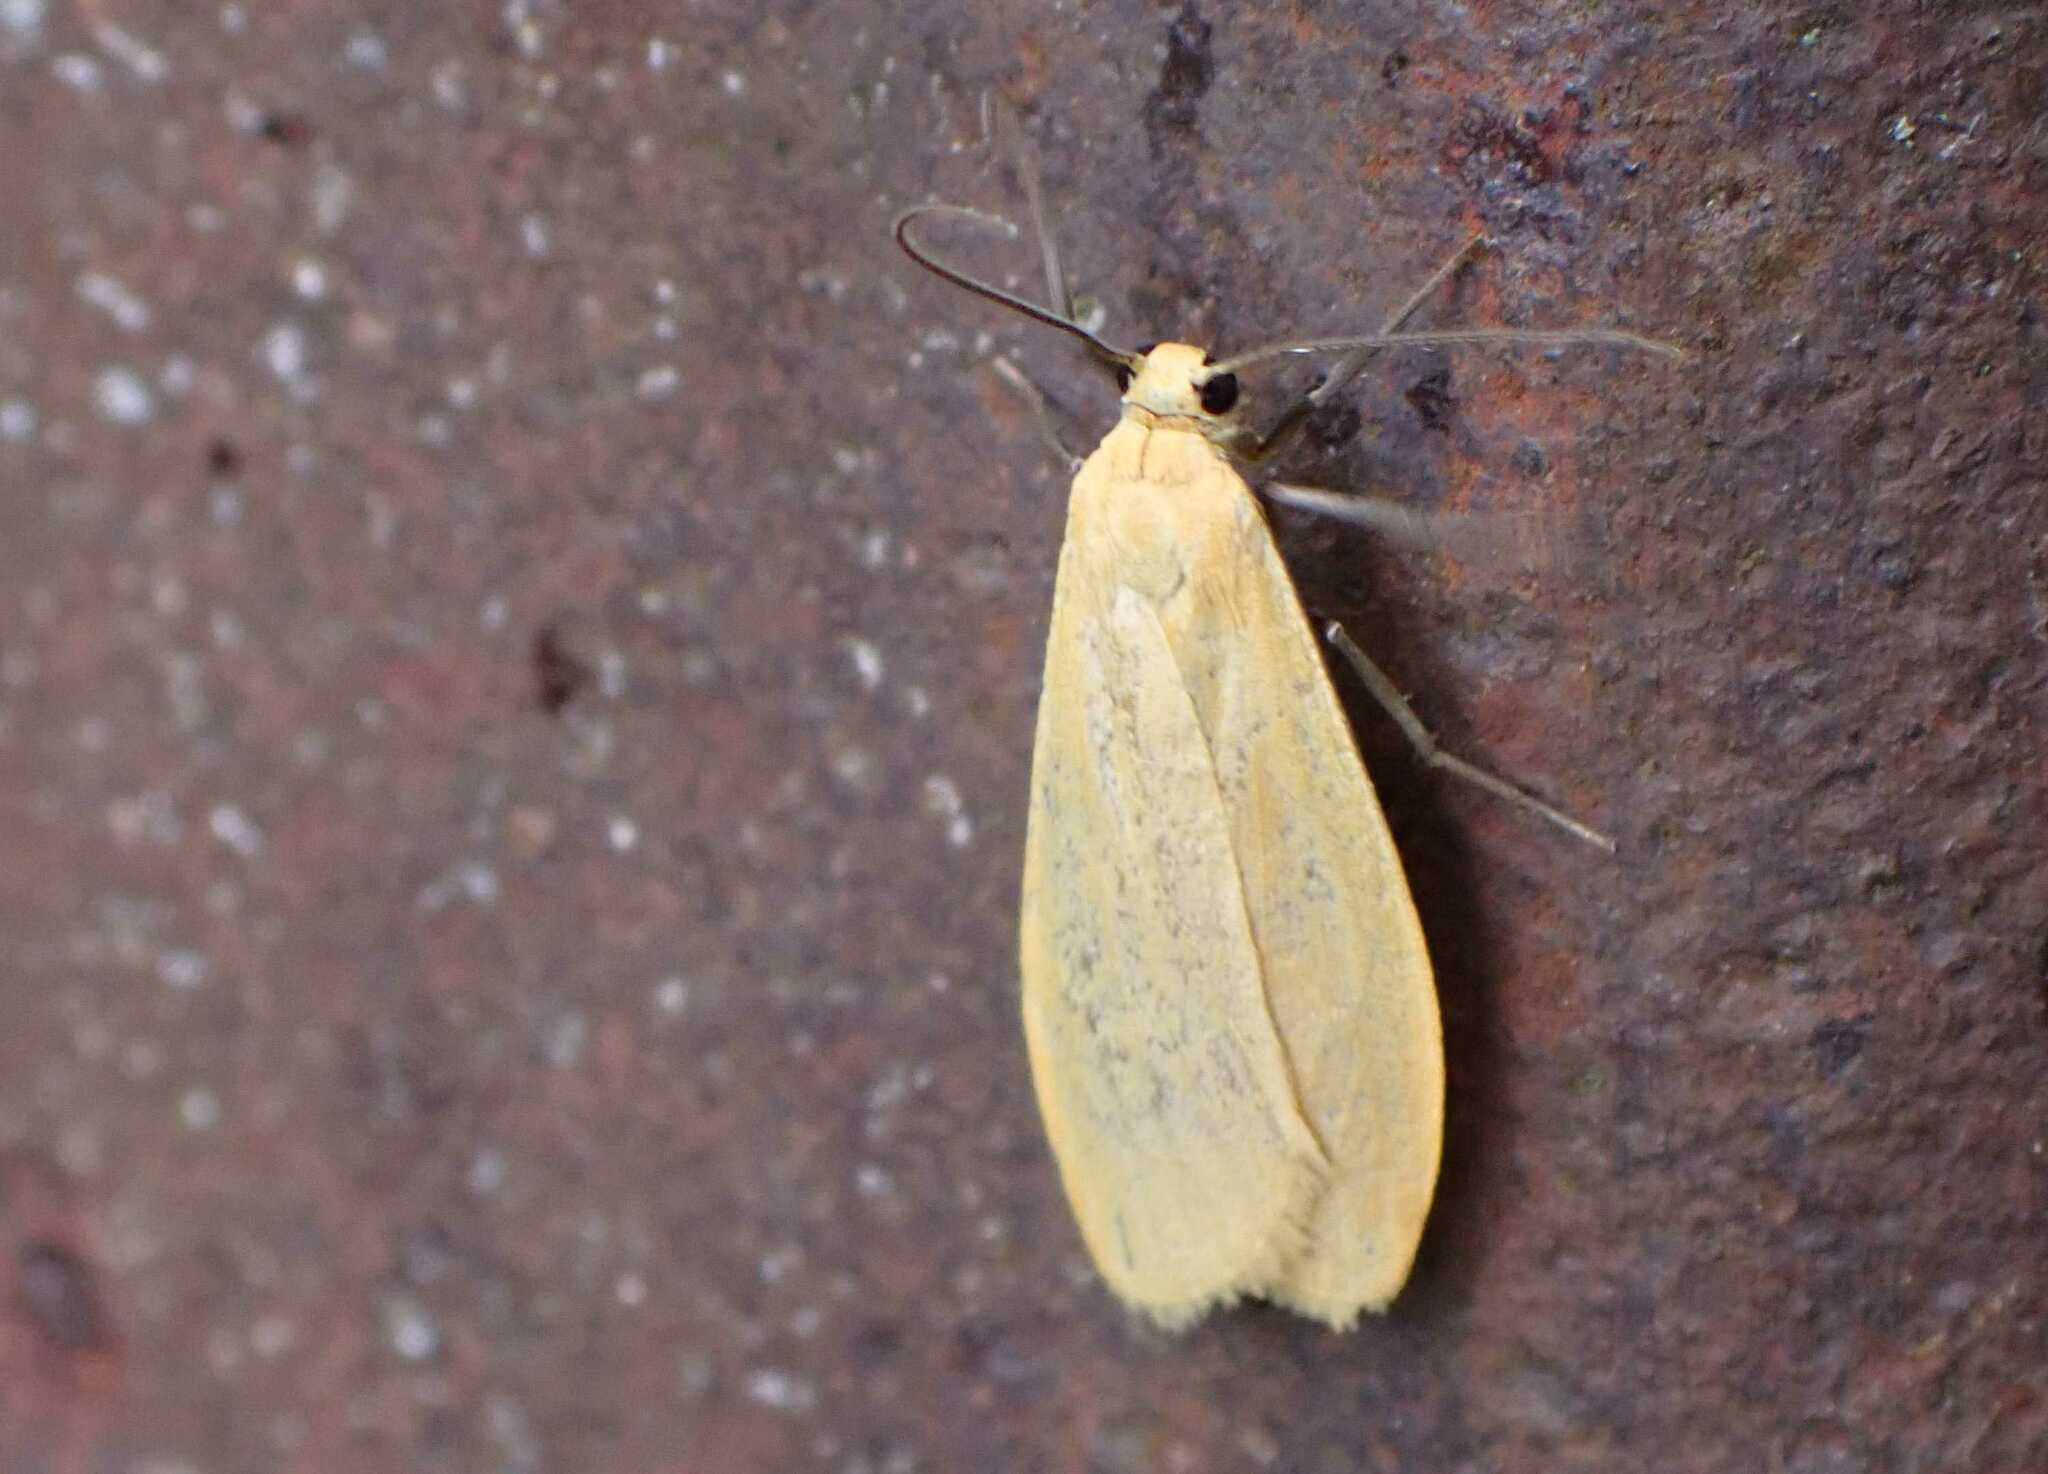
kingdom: Animalia
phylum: Arthropoda
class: Insecta
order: Lepidoptera
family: Erebidae
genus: Wittia
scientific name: Wittia sororcula
